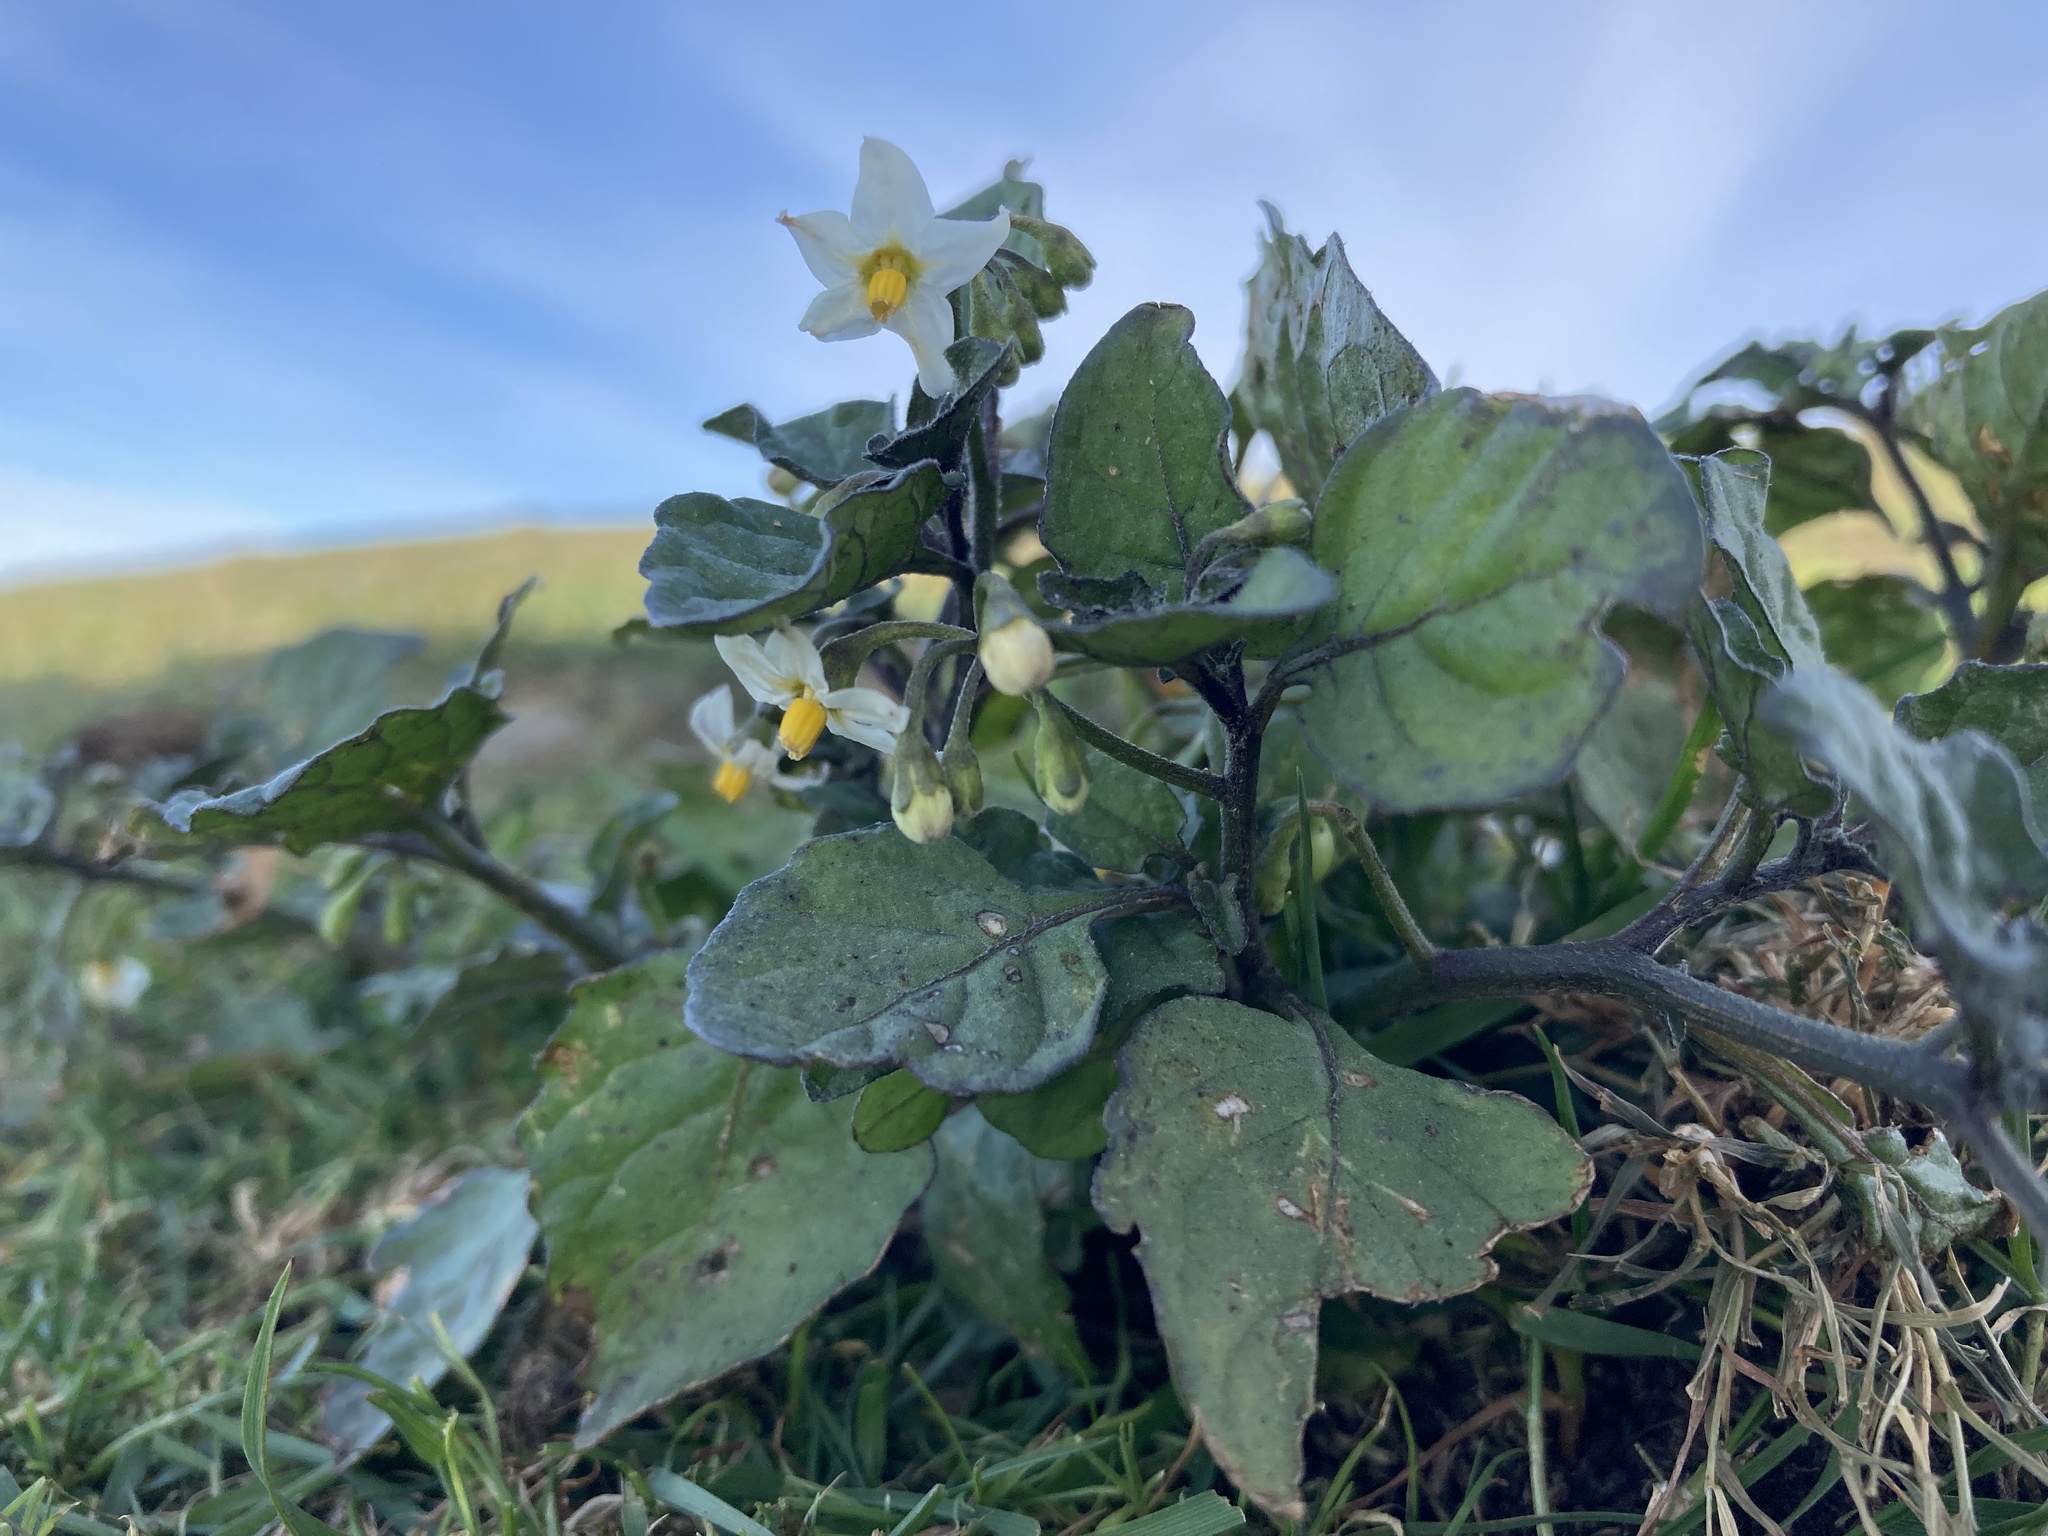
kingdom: Plantae
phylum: Tracheophyta
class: Magnoliopsida
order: Solanales
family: Solanaceae
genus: Solanum
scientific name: Solanum nigrum
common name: Black nightshade
